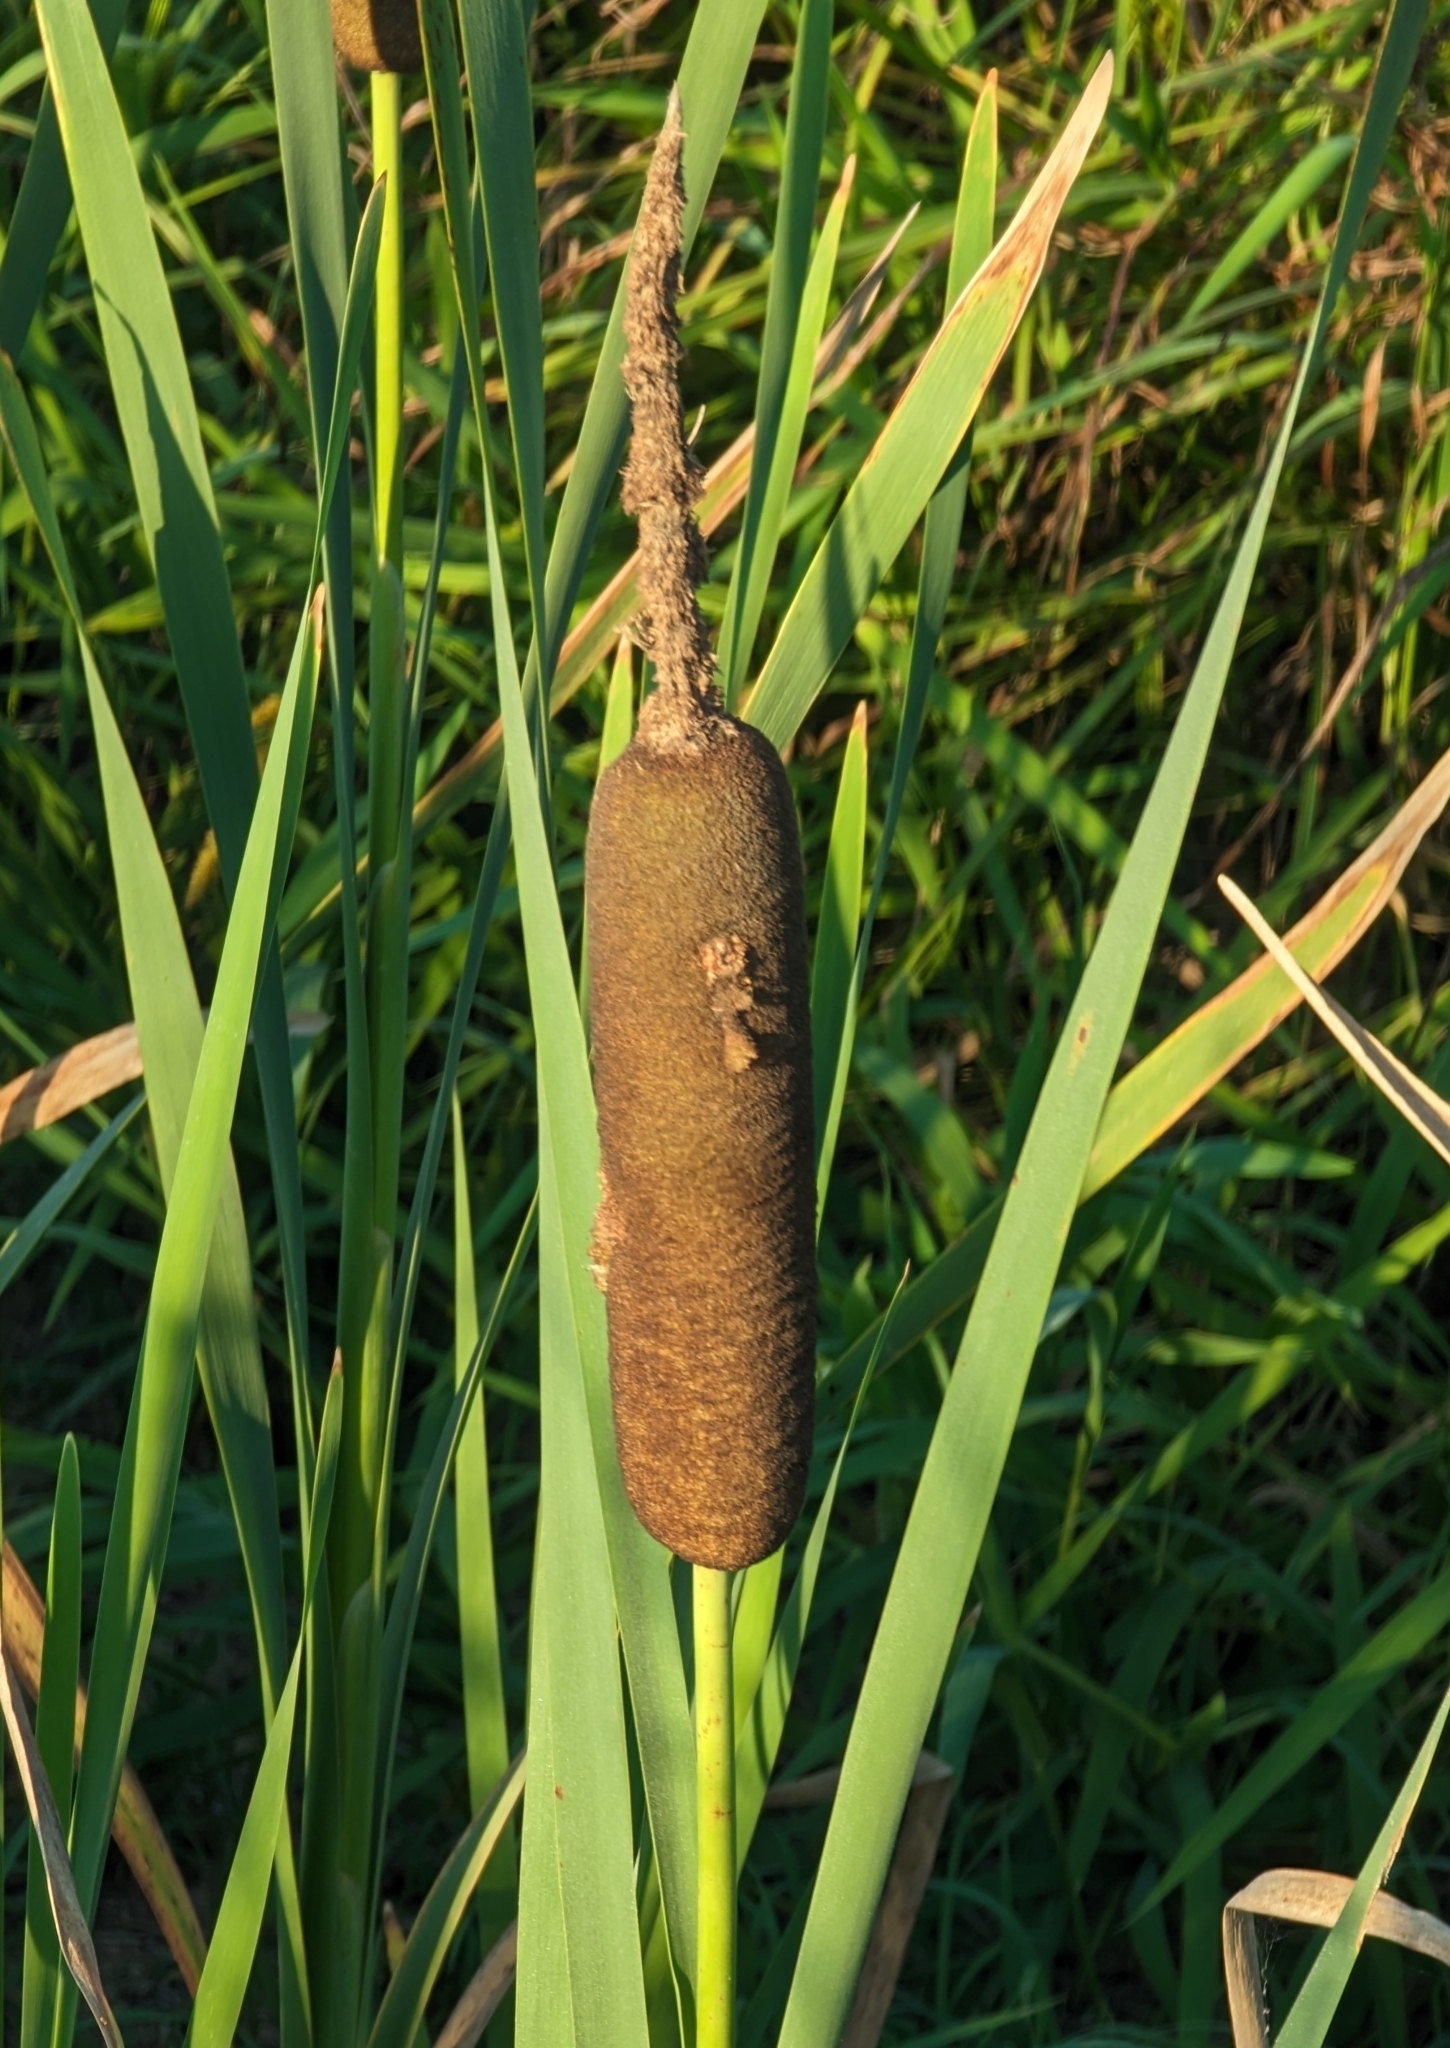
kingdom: Plantae
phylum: Tracheophyta
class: Liliopsida
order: Poales
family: Typhaceae
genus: Typha
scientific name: Typha latifolia
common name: Broadleaf cattail
